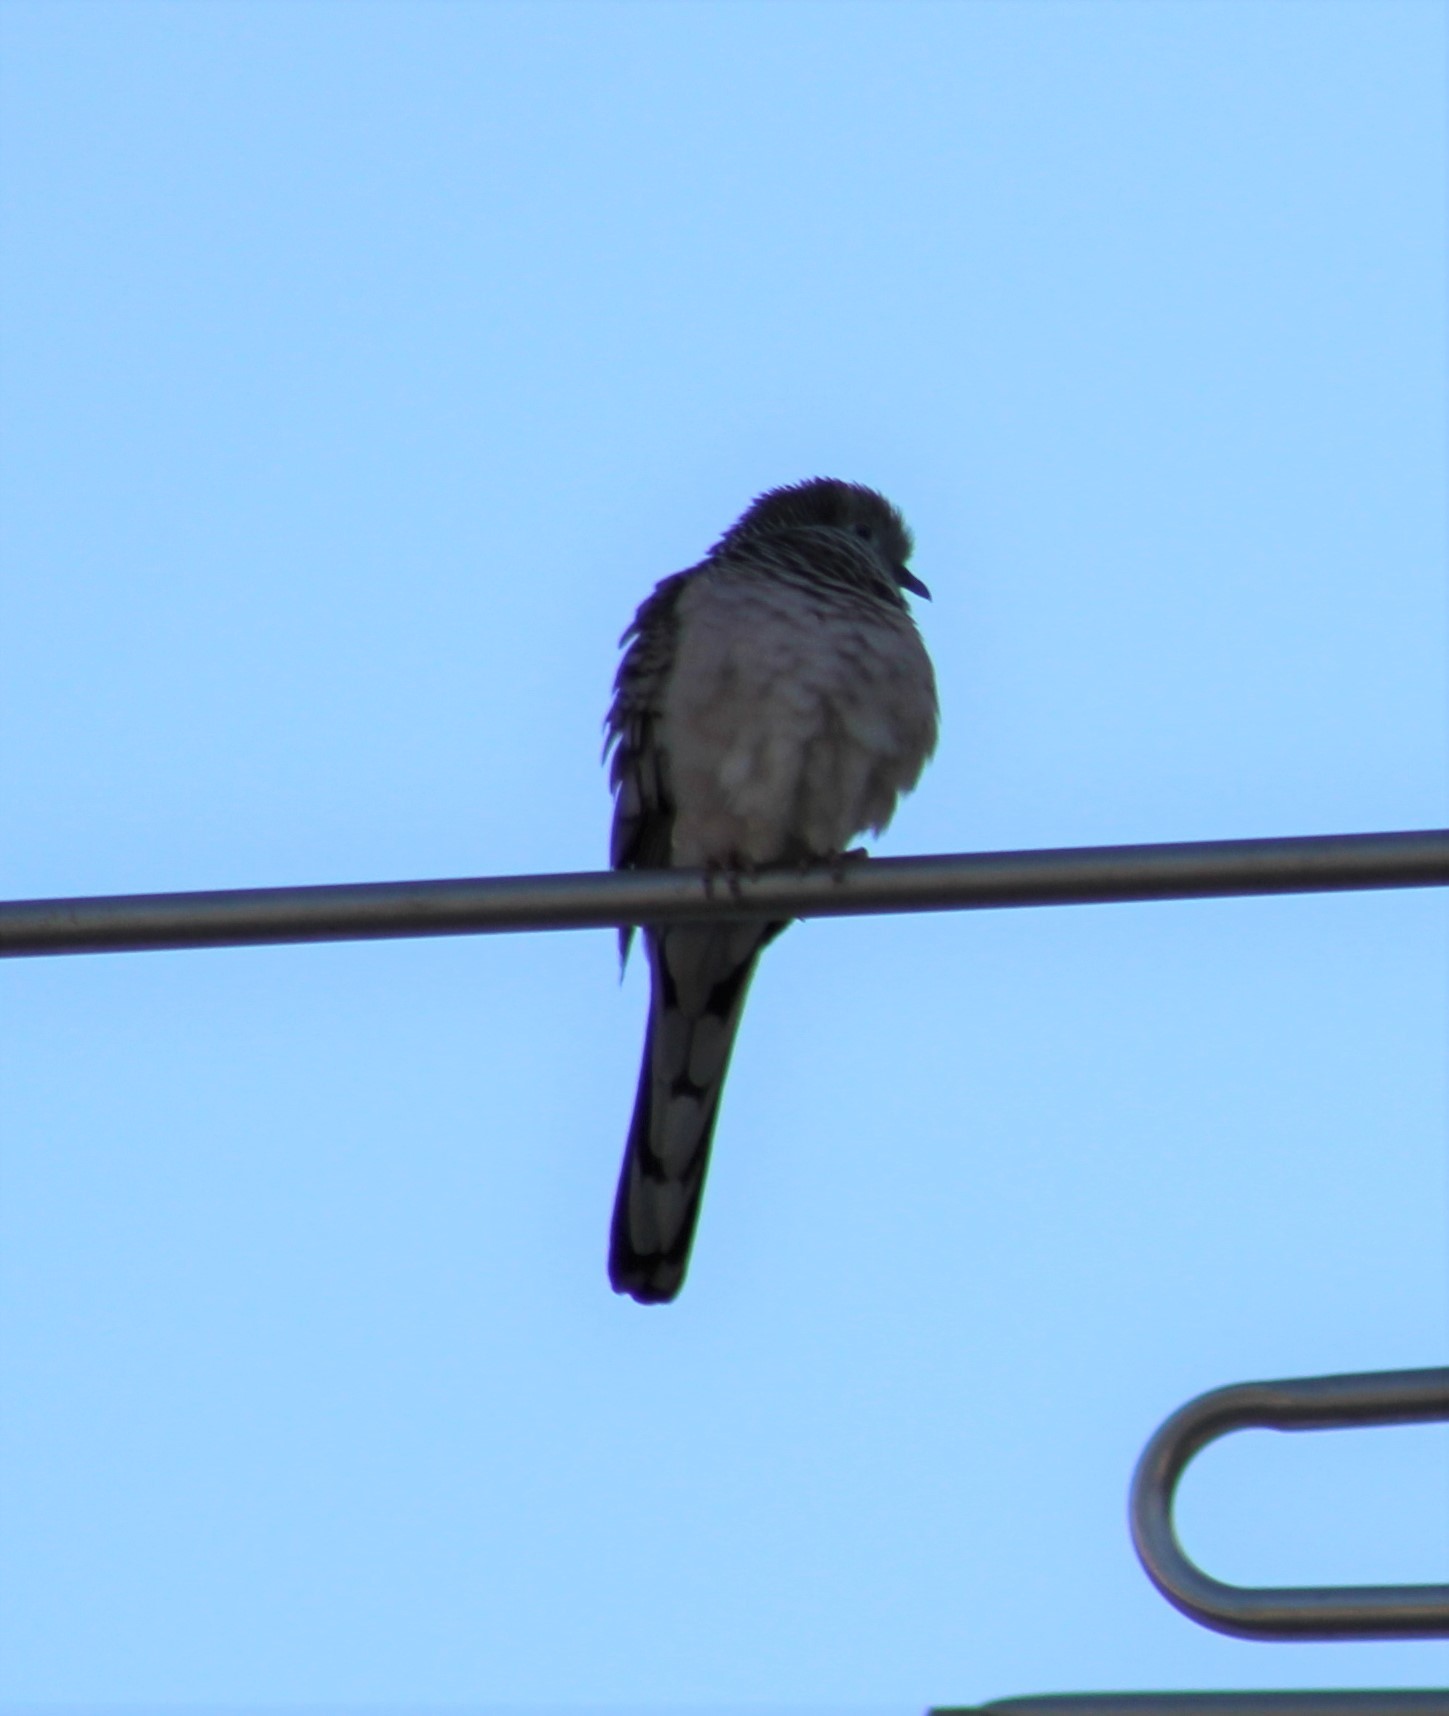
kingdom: Animalia
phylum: Chordata
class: Aves
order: Columbiformes
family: Columbidae
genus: Geopelia
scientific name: Geopelia placida
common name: Peaceful dove
